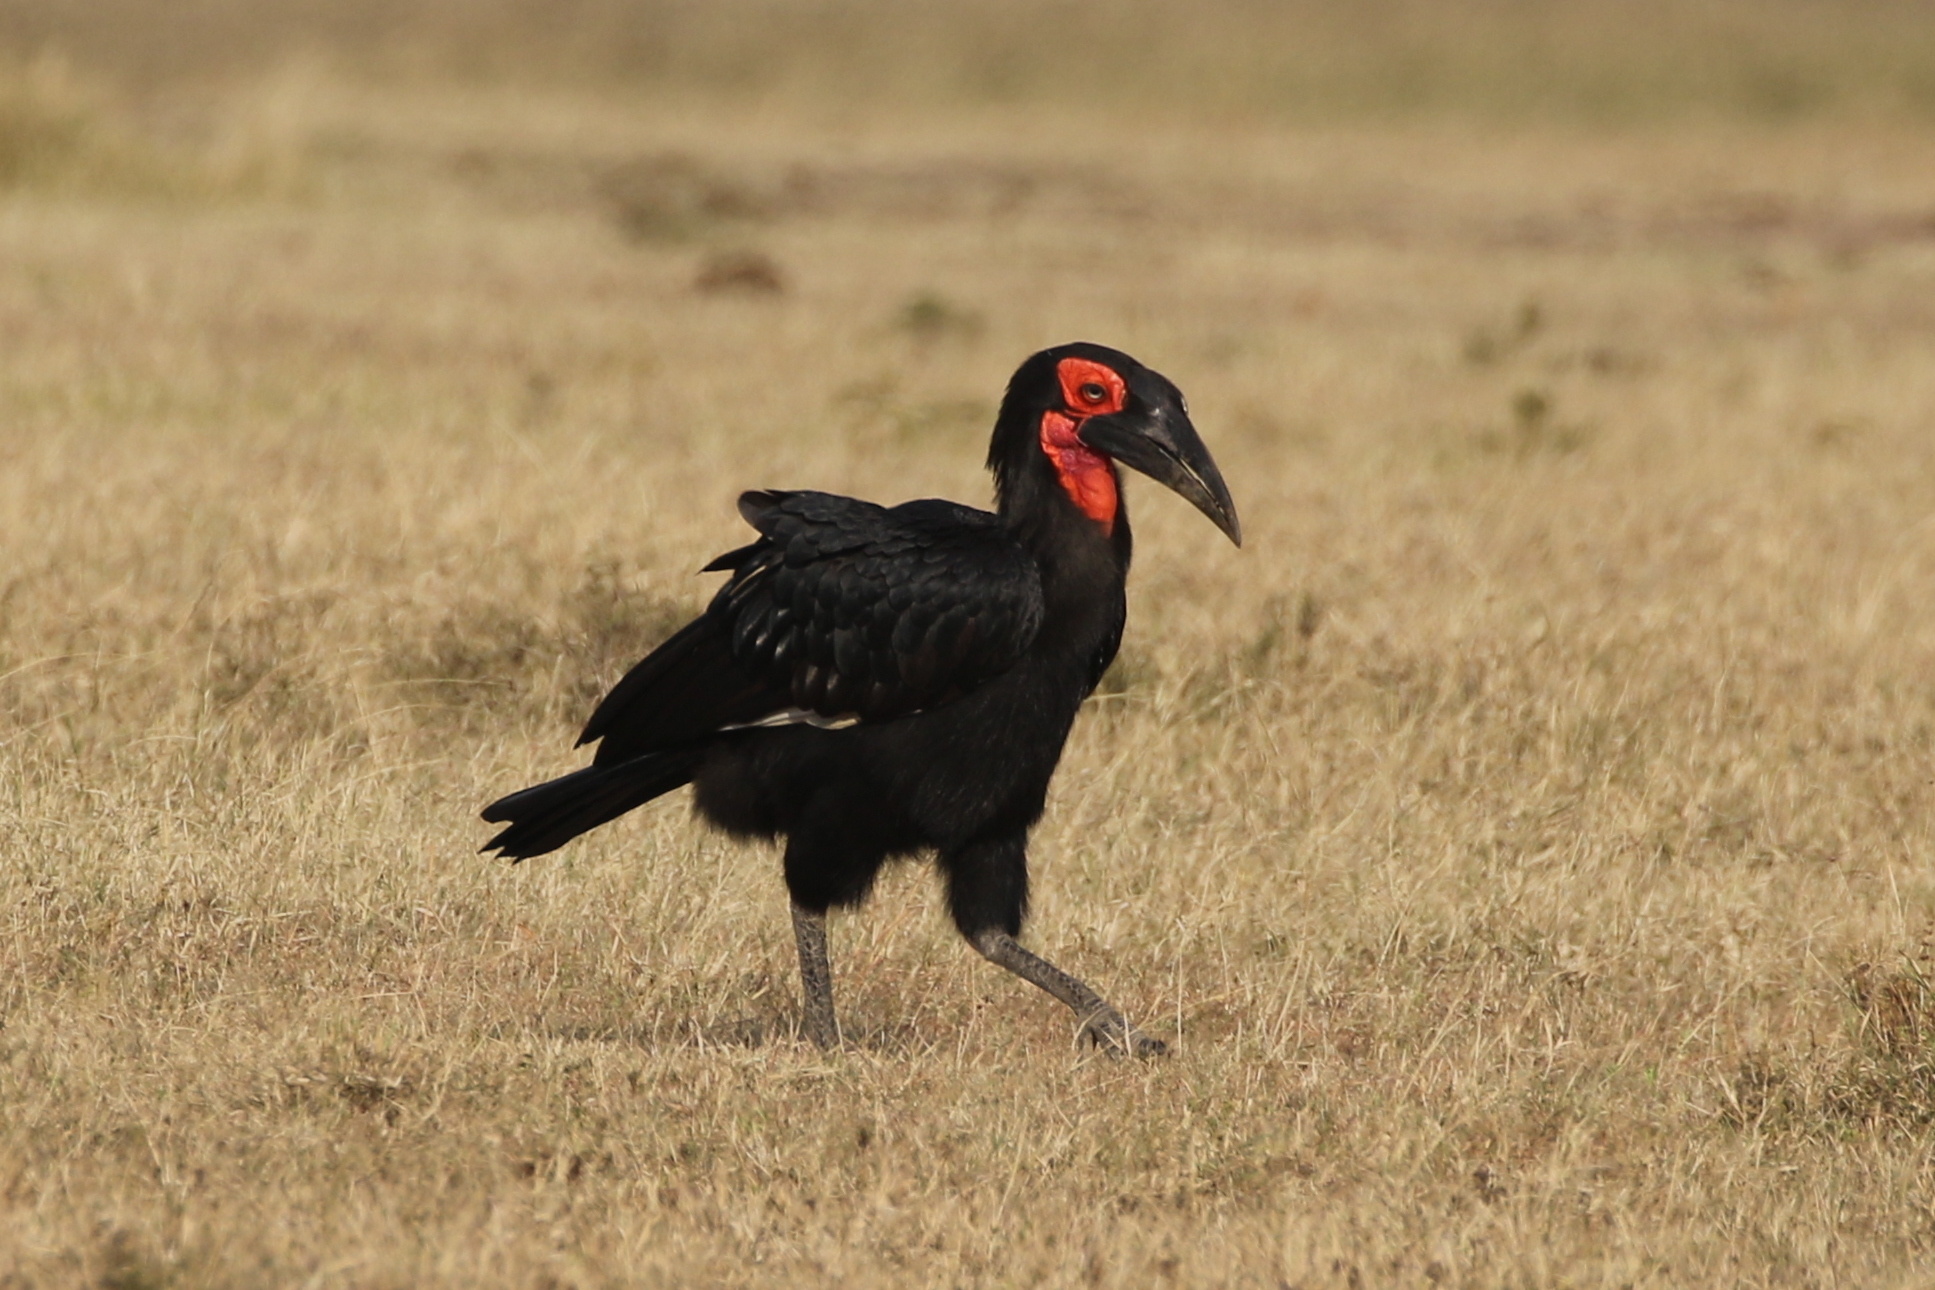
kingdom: Animalia
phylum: Chordata
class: Aves
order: Bucerotiformes
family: Bucorvidae
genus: Bucorvus
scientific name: Bucorvus leadbeateri
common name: Southern ground-hornbill
